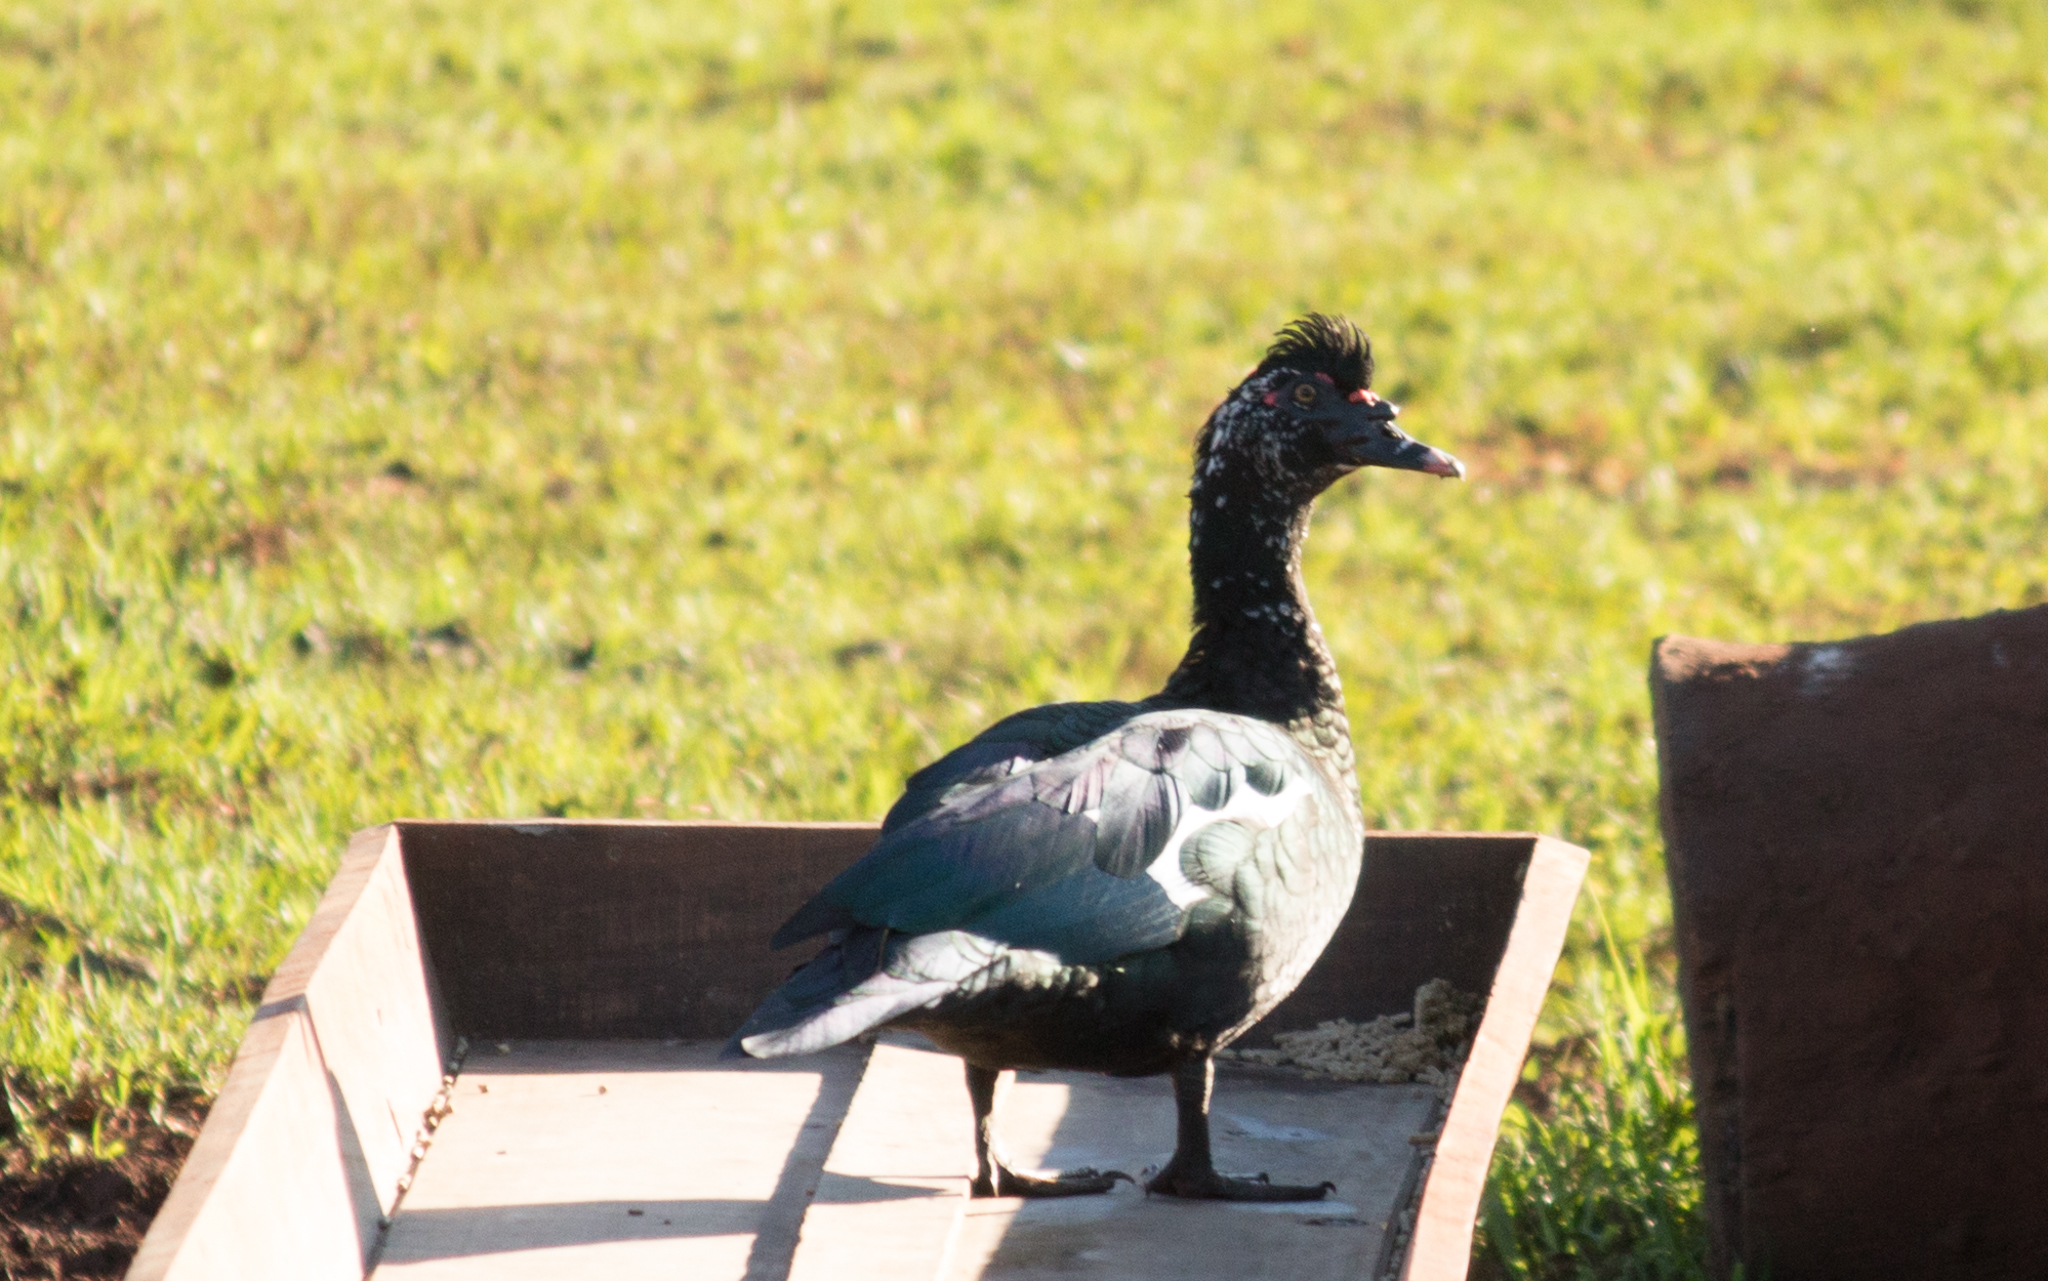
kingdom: Animalia
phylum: Chordata
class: Aves
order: Anseriformes
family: Anatidae
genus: Cairina
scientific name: Cairina moschata
